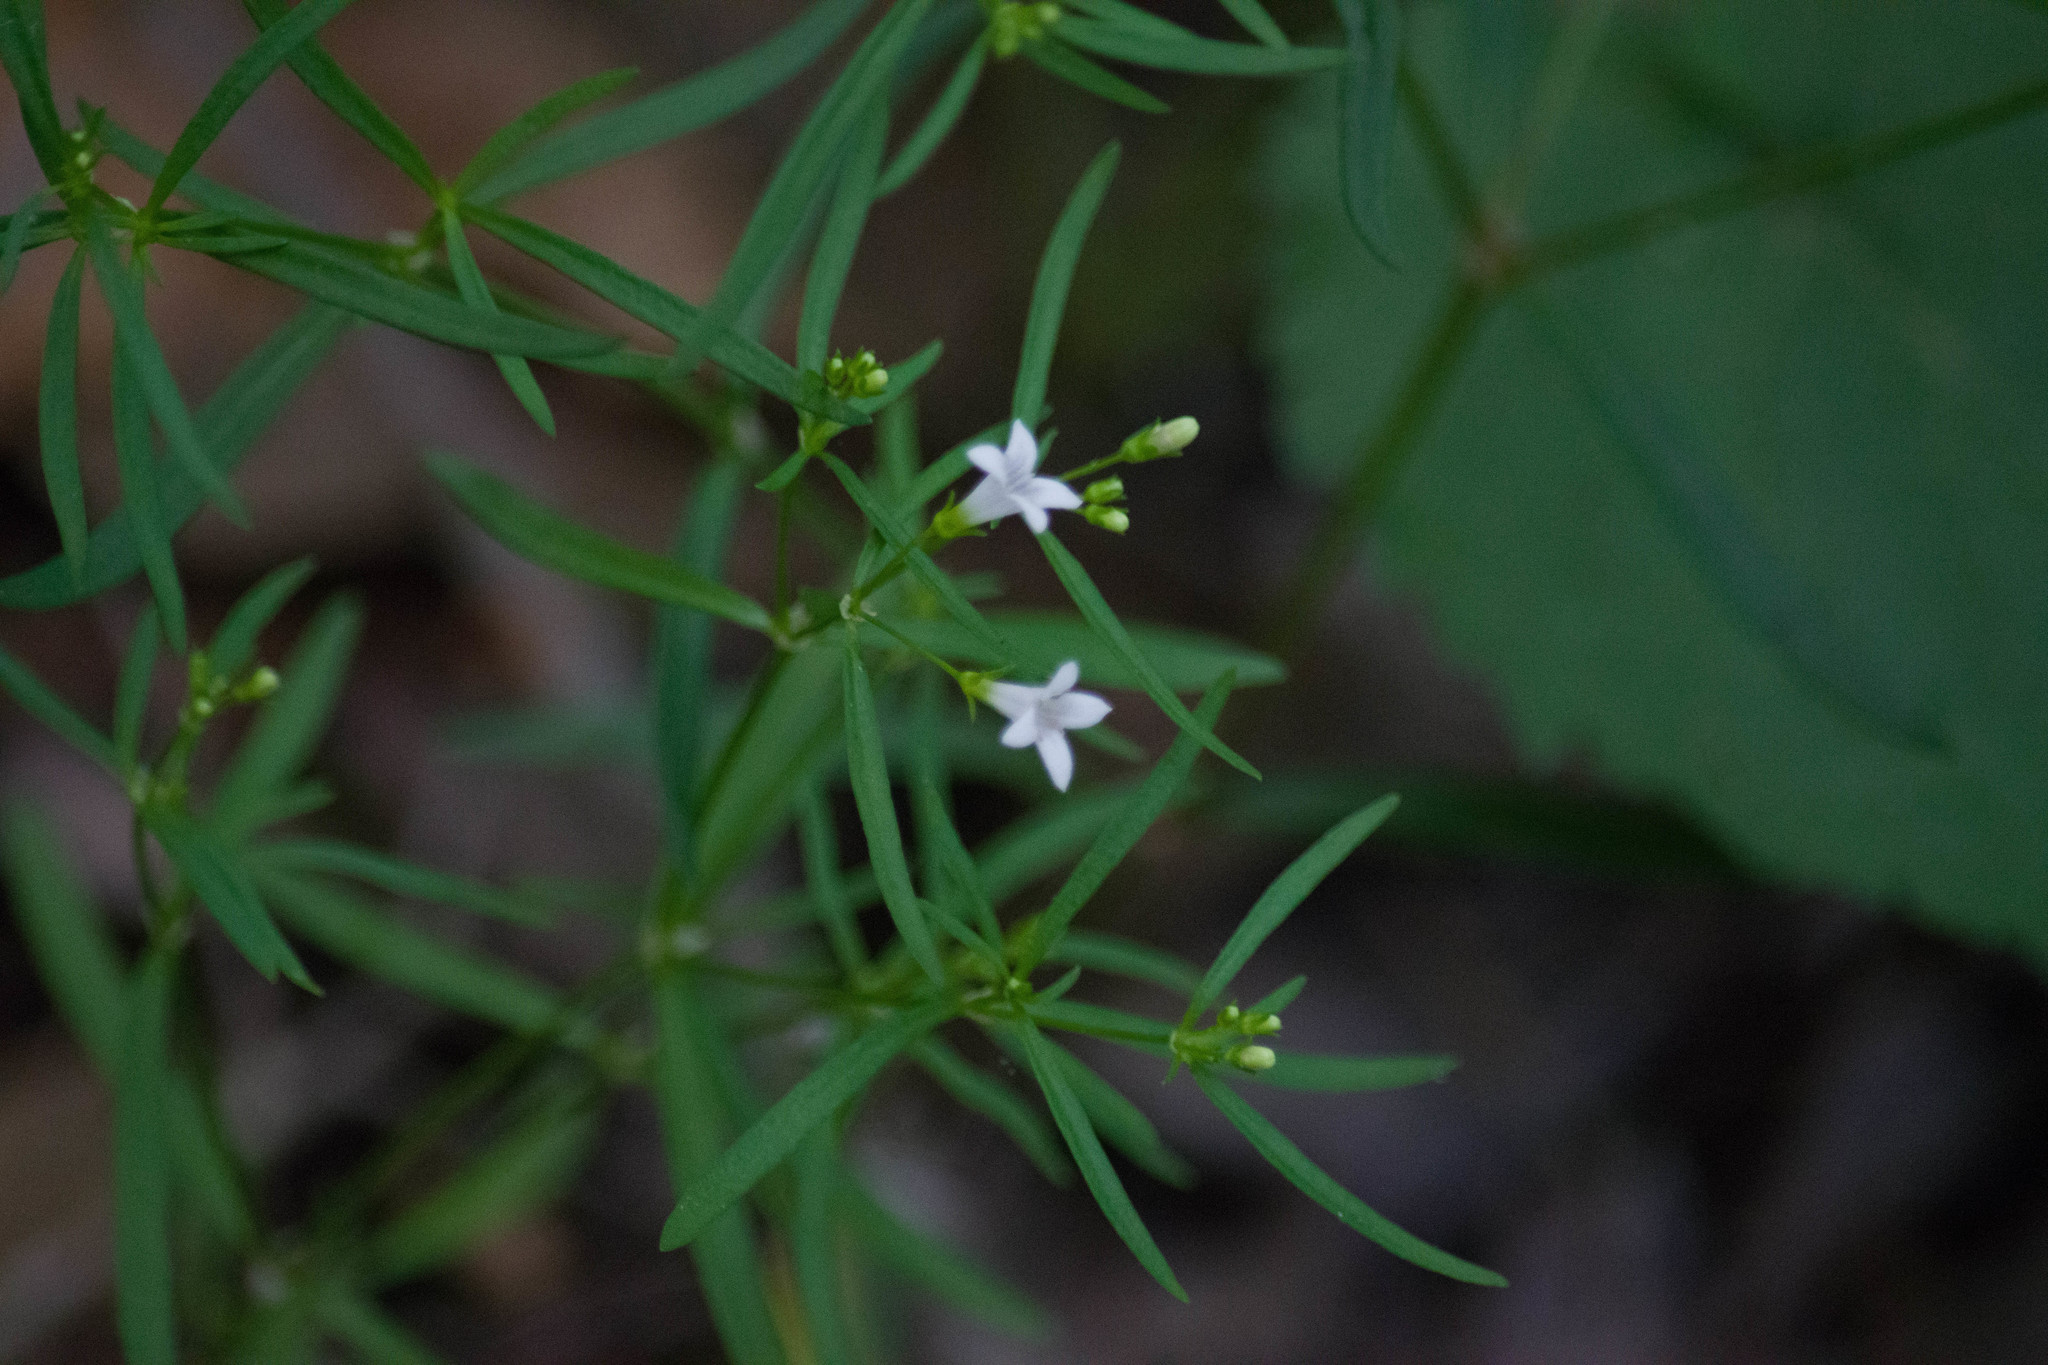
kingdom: Plantae
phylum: Tracheophyta
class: Magnoliopsida
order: Gentianales
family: Rubiaceae
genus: Houstonia
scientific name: Houstonia longifolia
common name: Long-leaved bluets
